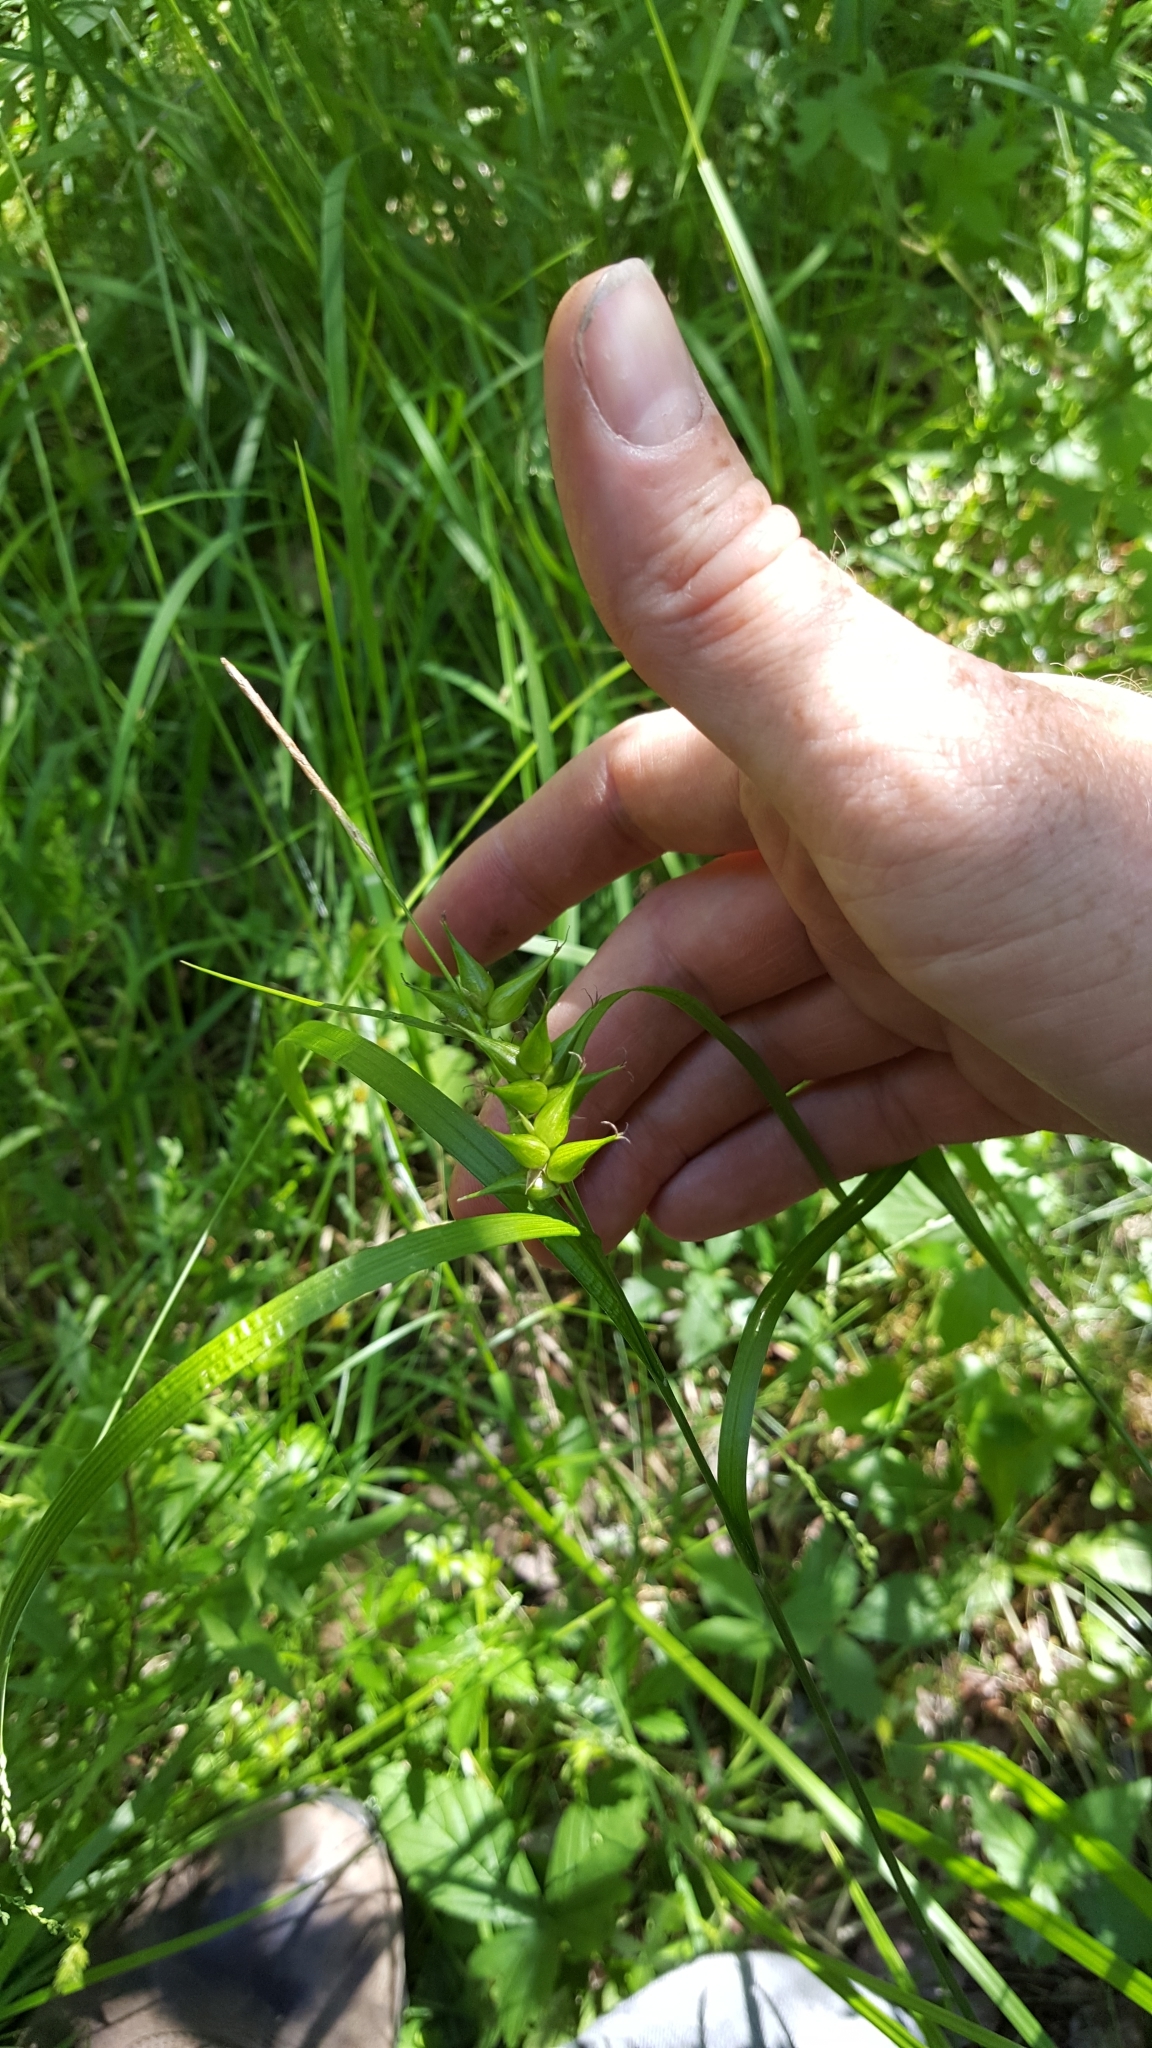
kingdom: Plantae
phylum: Tracheophyta
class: Liliopsida
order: Poales
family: Cyperaceae
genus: Carex
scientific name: Carex intumescens
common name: Greater bladder sedge
